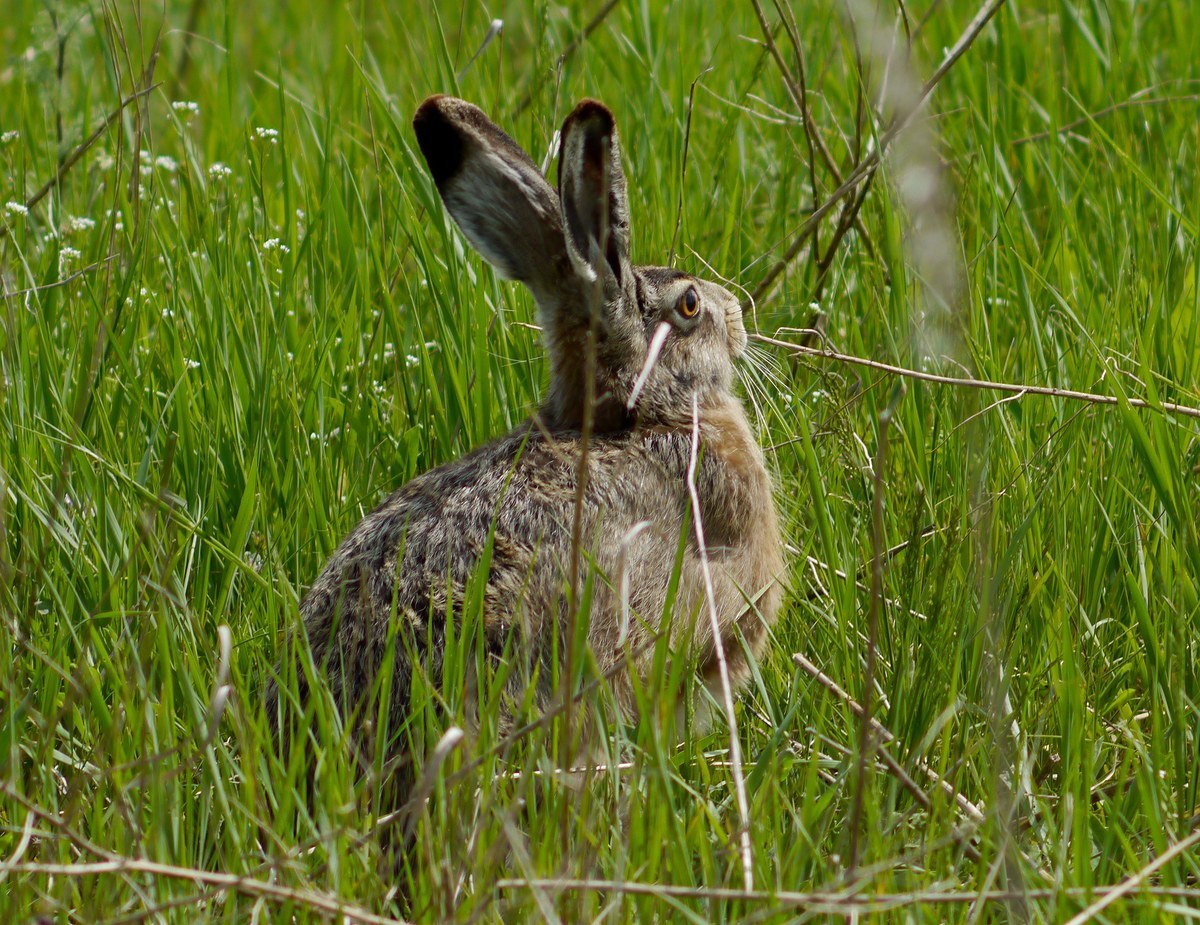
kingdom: Animalia
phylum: Chordata
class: Mammalia
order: Lagomorpha
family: Leporidae
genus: Lepus
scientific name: Lepus europaeus
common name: European hare
